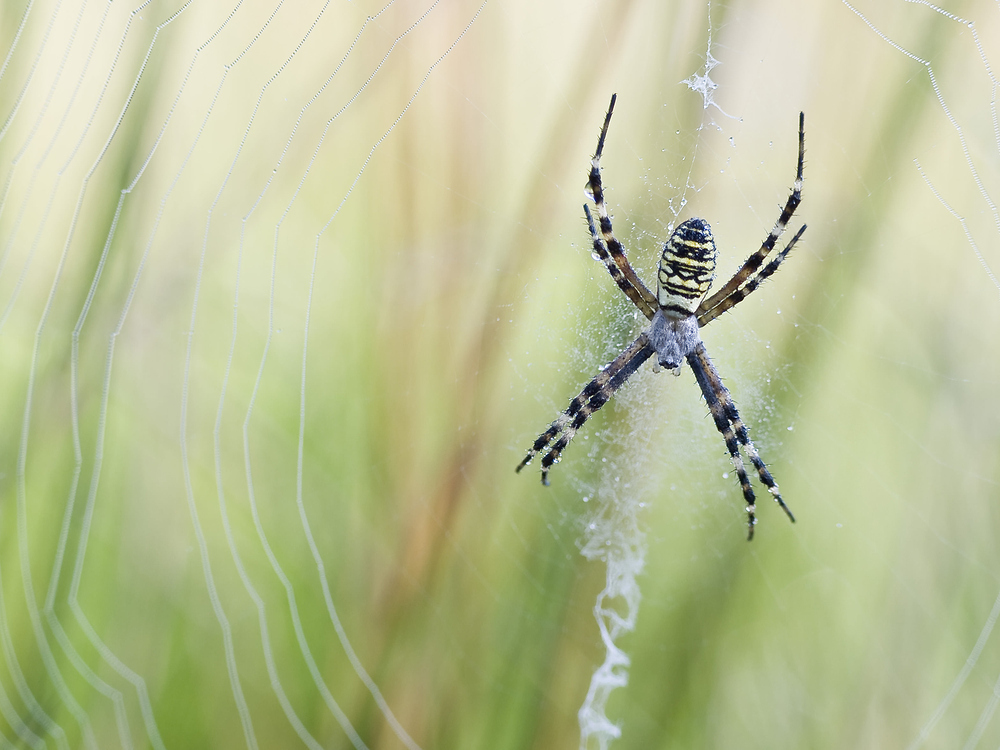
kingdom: Animalia
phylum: Arthropoda
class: Arachnida
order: Araneae
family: Araneidae
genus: Argiope
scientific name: Argiope bruennichi
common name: Wasp spider
